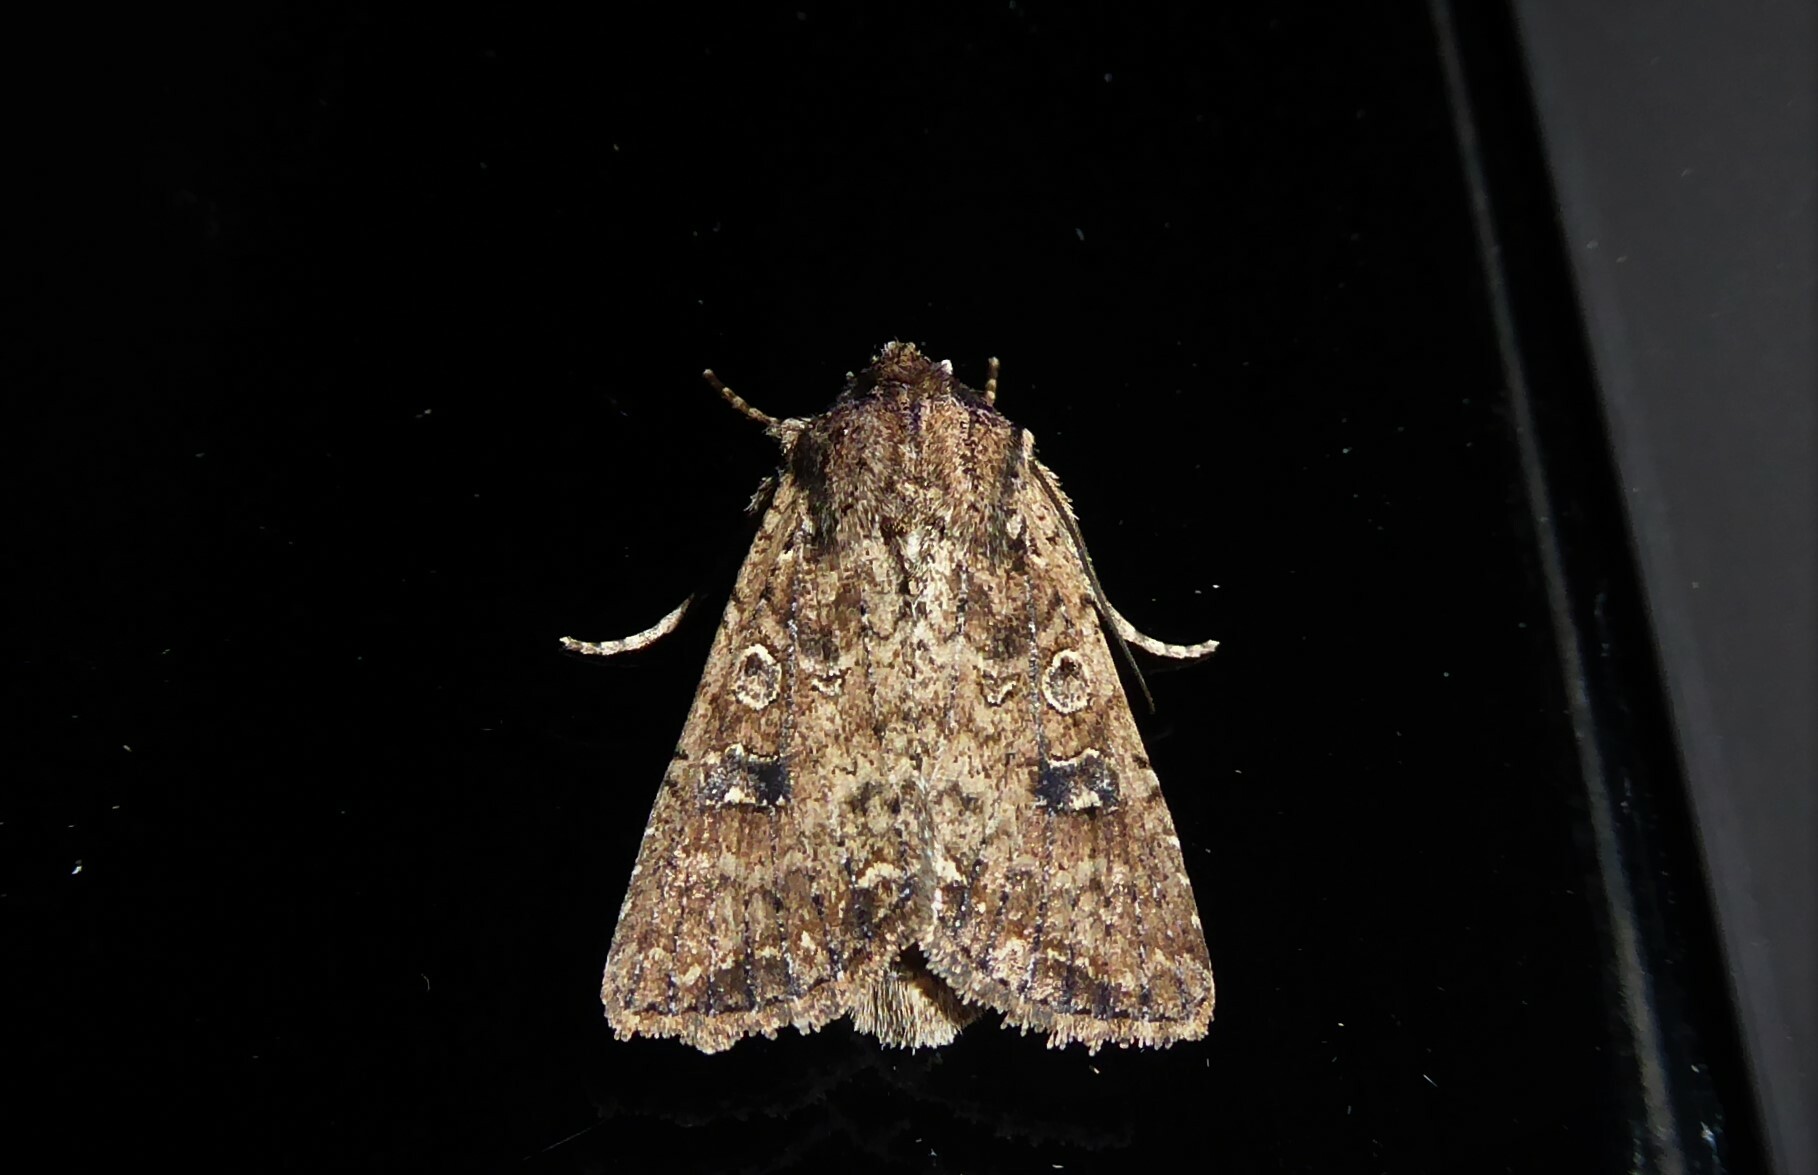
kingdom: Animalia
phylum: Arthropoda
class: Insecta
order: Lepidoptera
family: Noctuidae
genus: Ichneutica
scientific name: Ichneutica morosa
